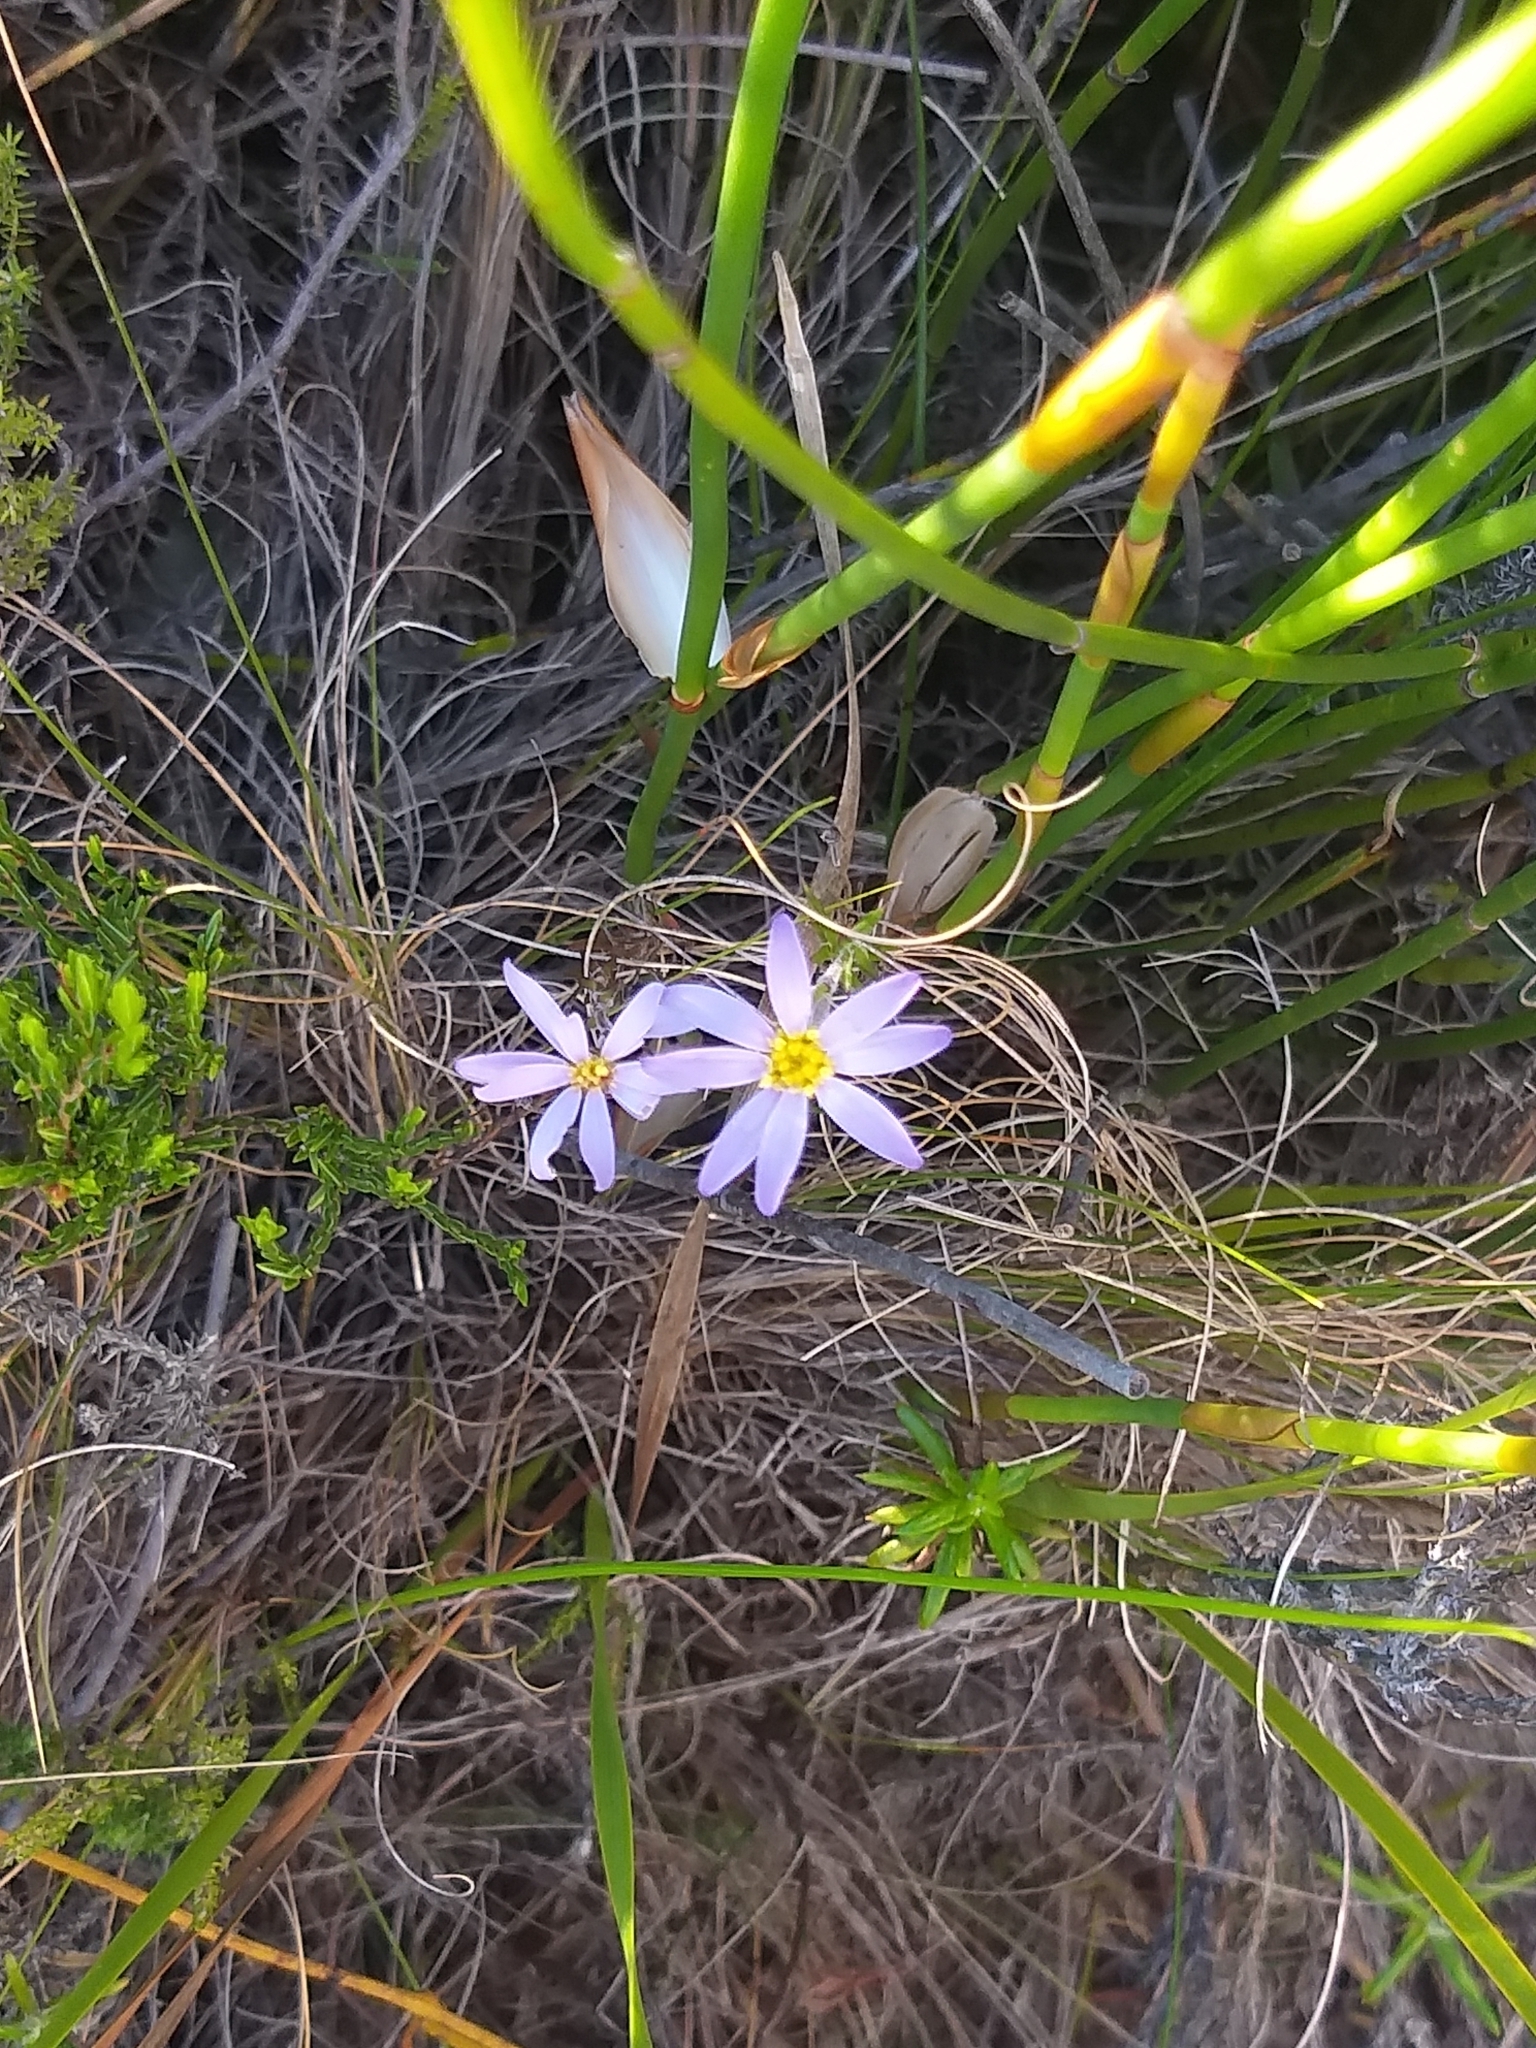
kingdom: Plantae
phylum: Tracheophyta
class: Magnoliopsida
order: Asterales
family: Asteraceae
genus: Zyrphelis
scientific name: Zyrphelis taxifolia
